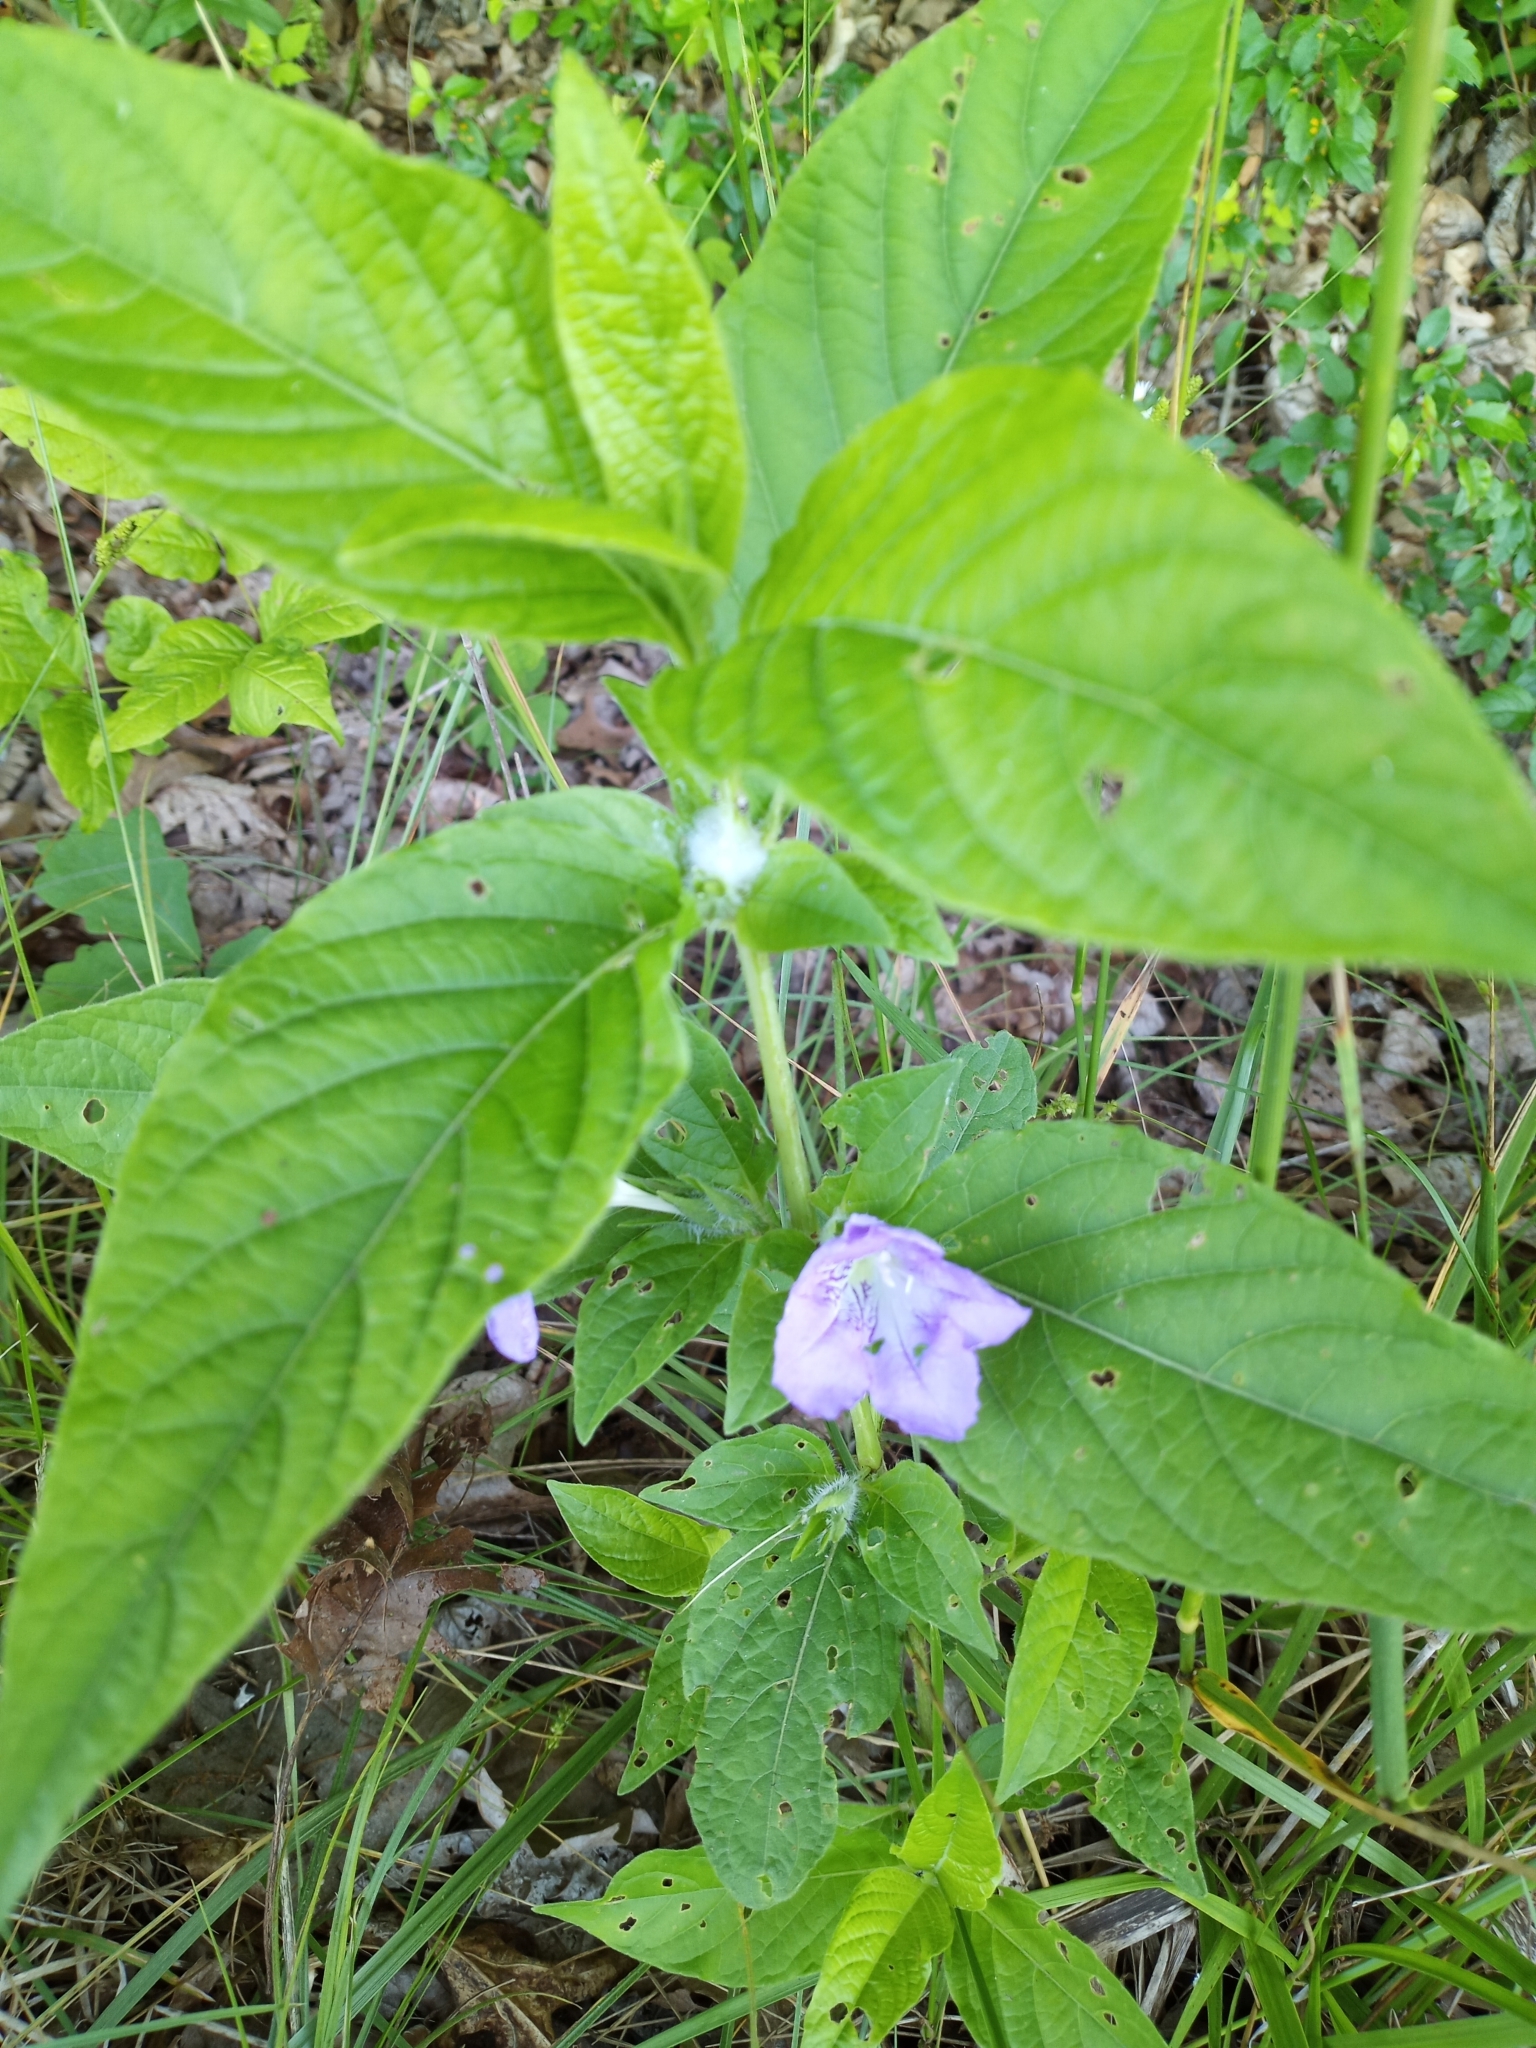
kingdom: Plantae
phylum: Tracheophyta
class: Magnoliopsida
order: Lamiales
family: Acanthaceae
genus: Ruellia
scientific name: Ruellia strepens
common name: Limestone wild petunia
